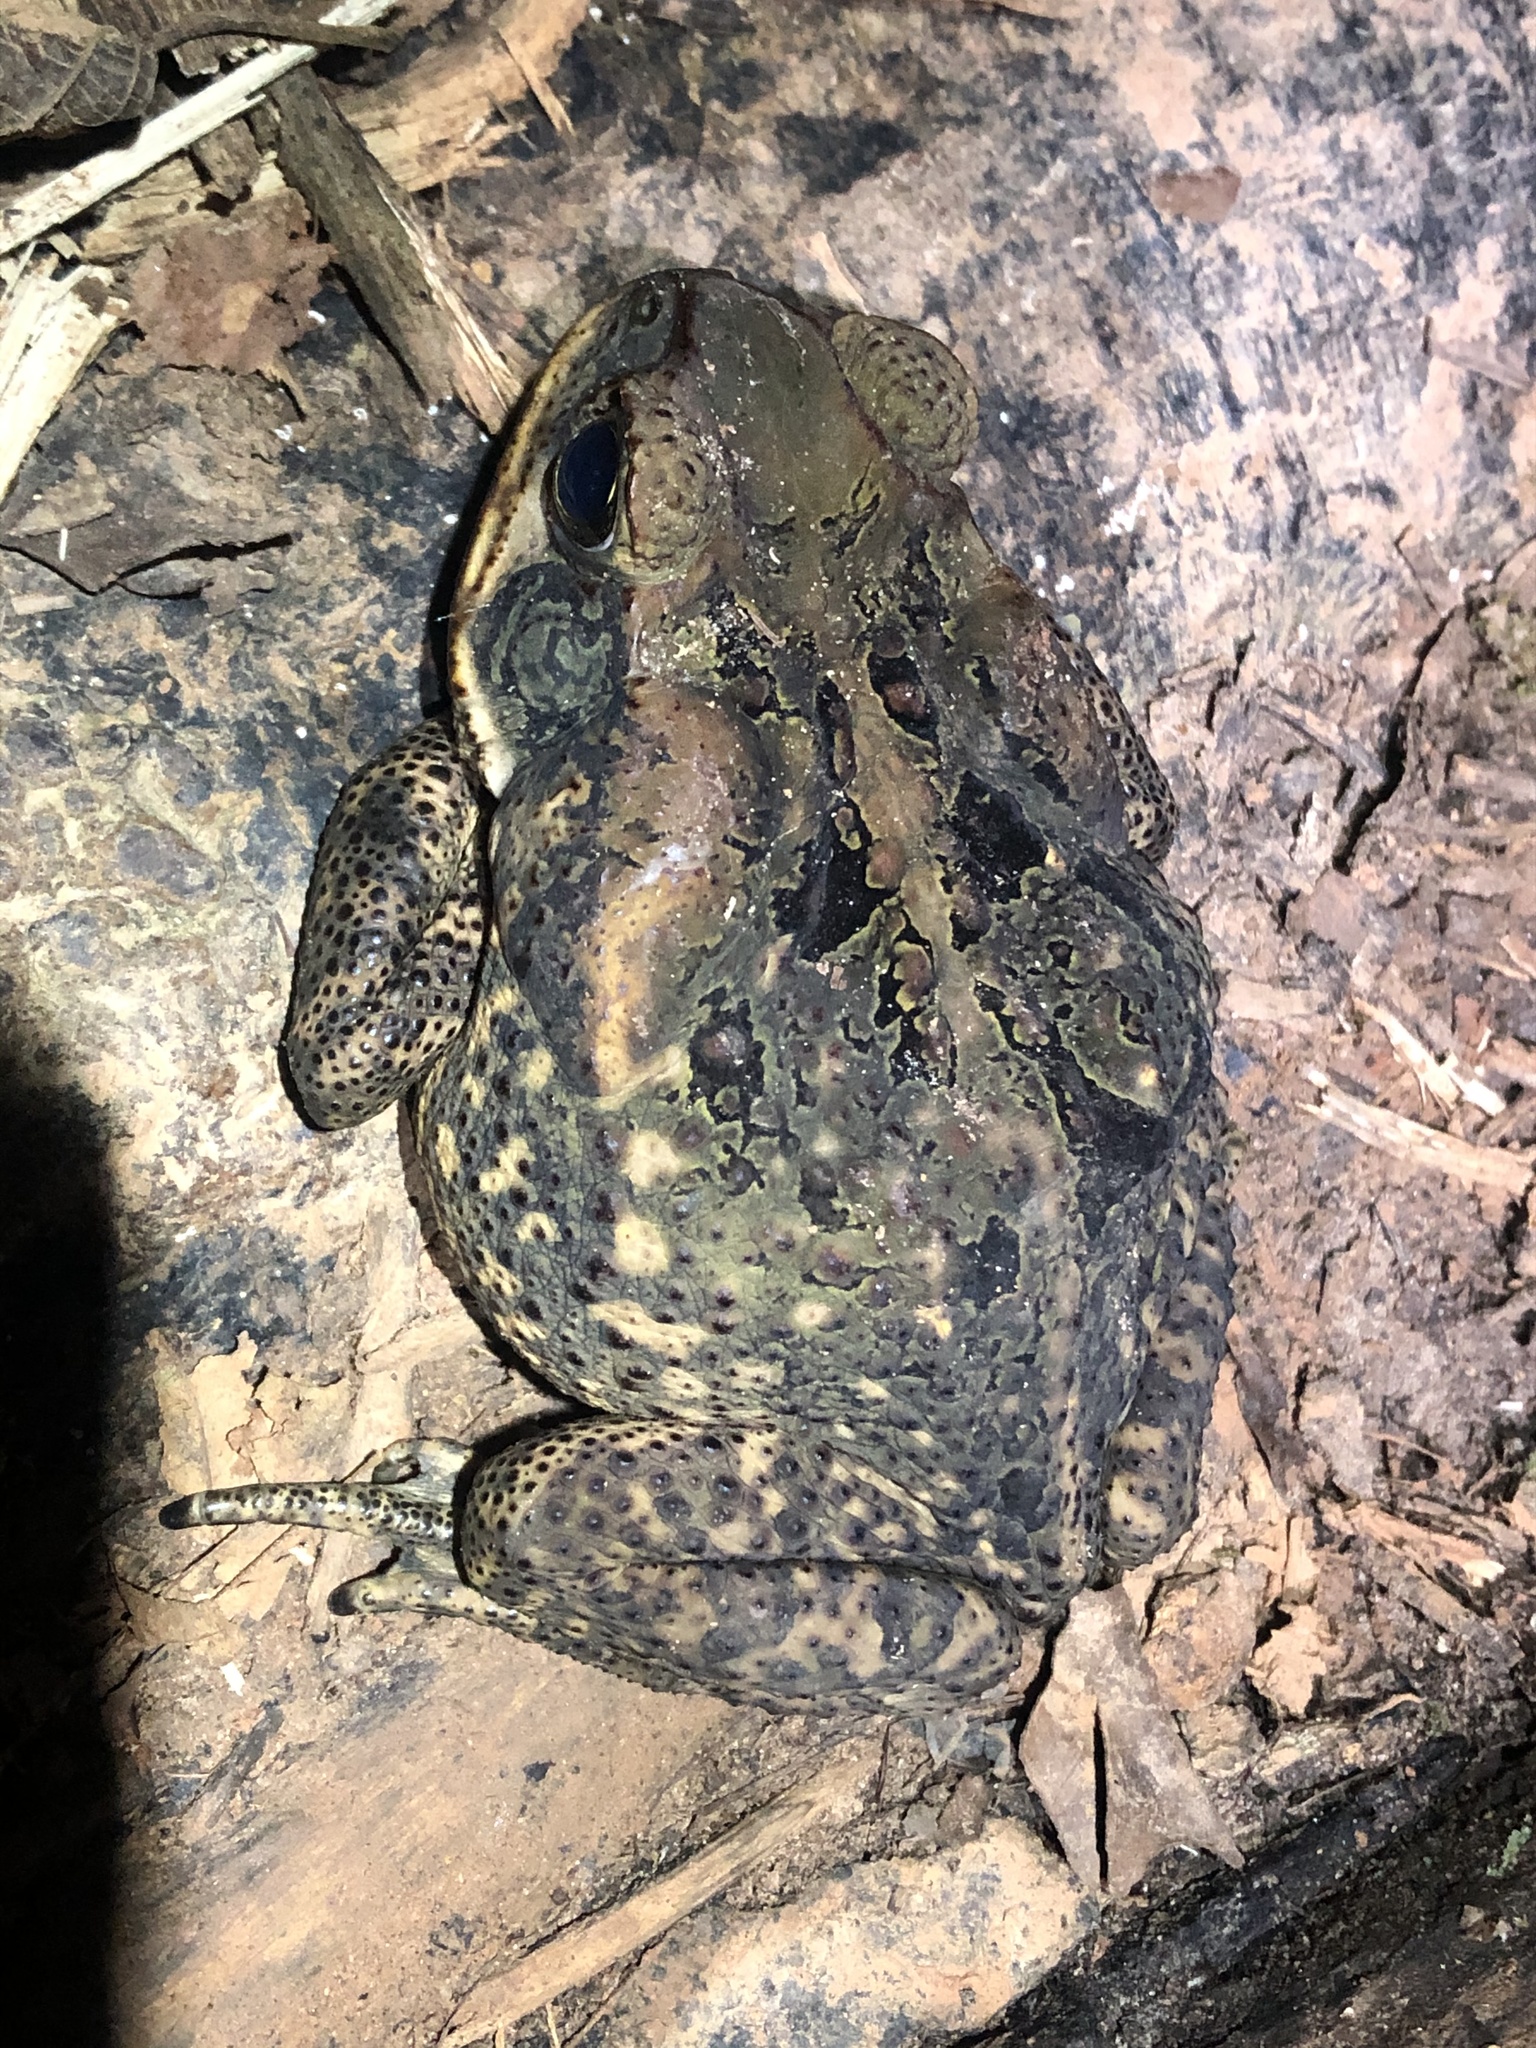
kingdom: Animalia
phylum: Chordata
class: Amphibia
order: Anura
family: Bufonidae
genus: Rhinella
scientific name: Rhinella marina
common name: Cane toad
